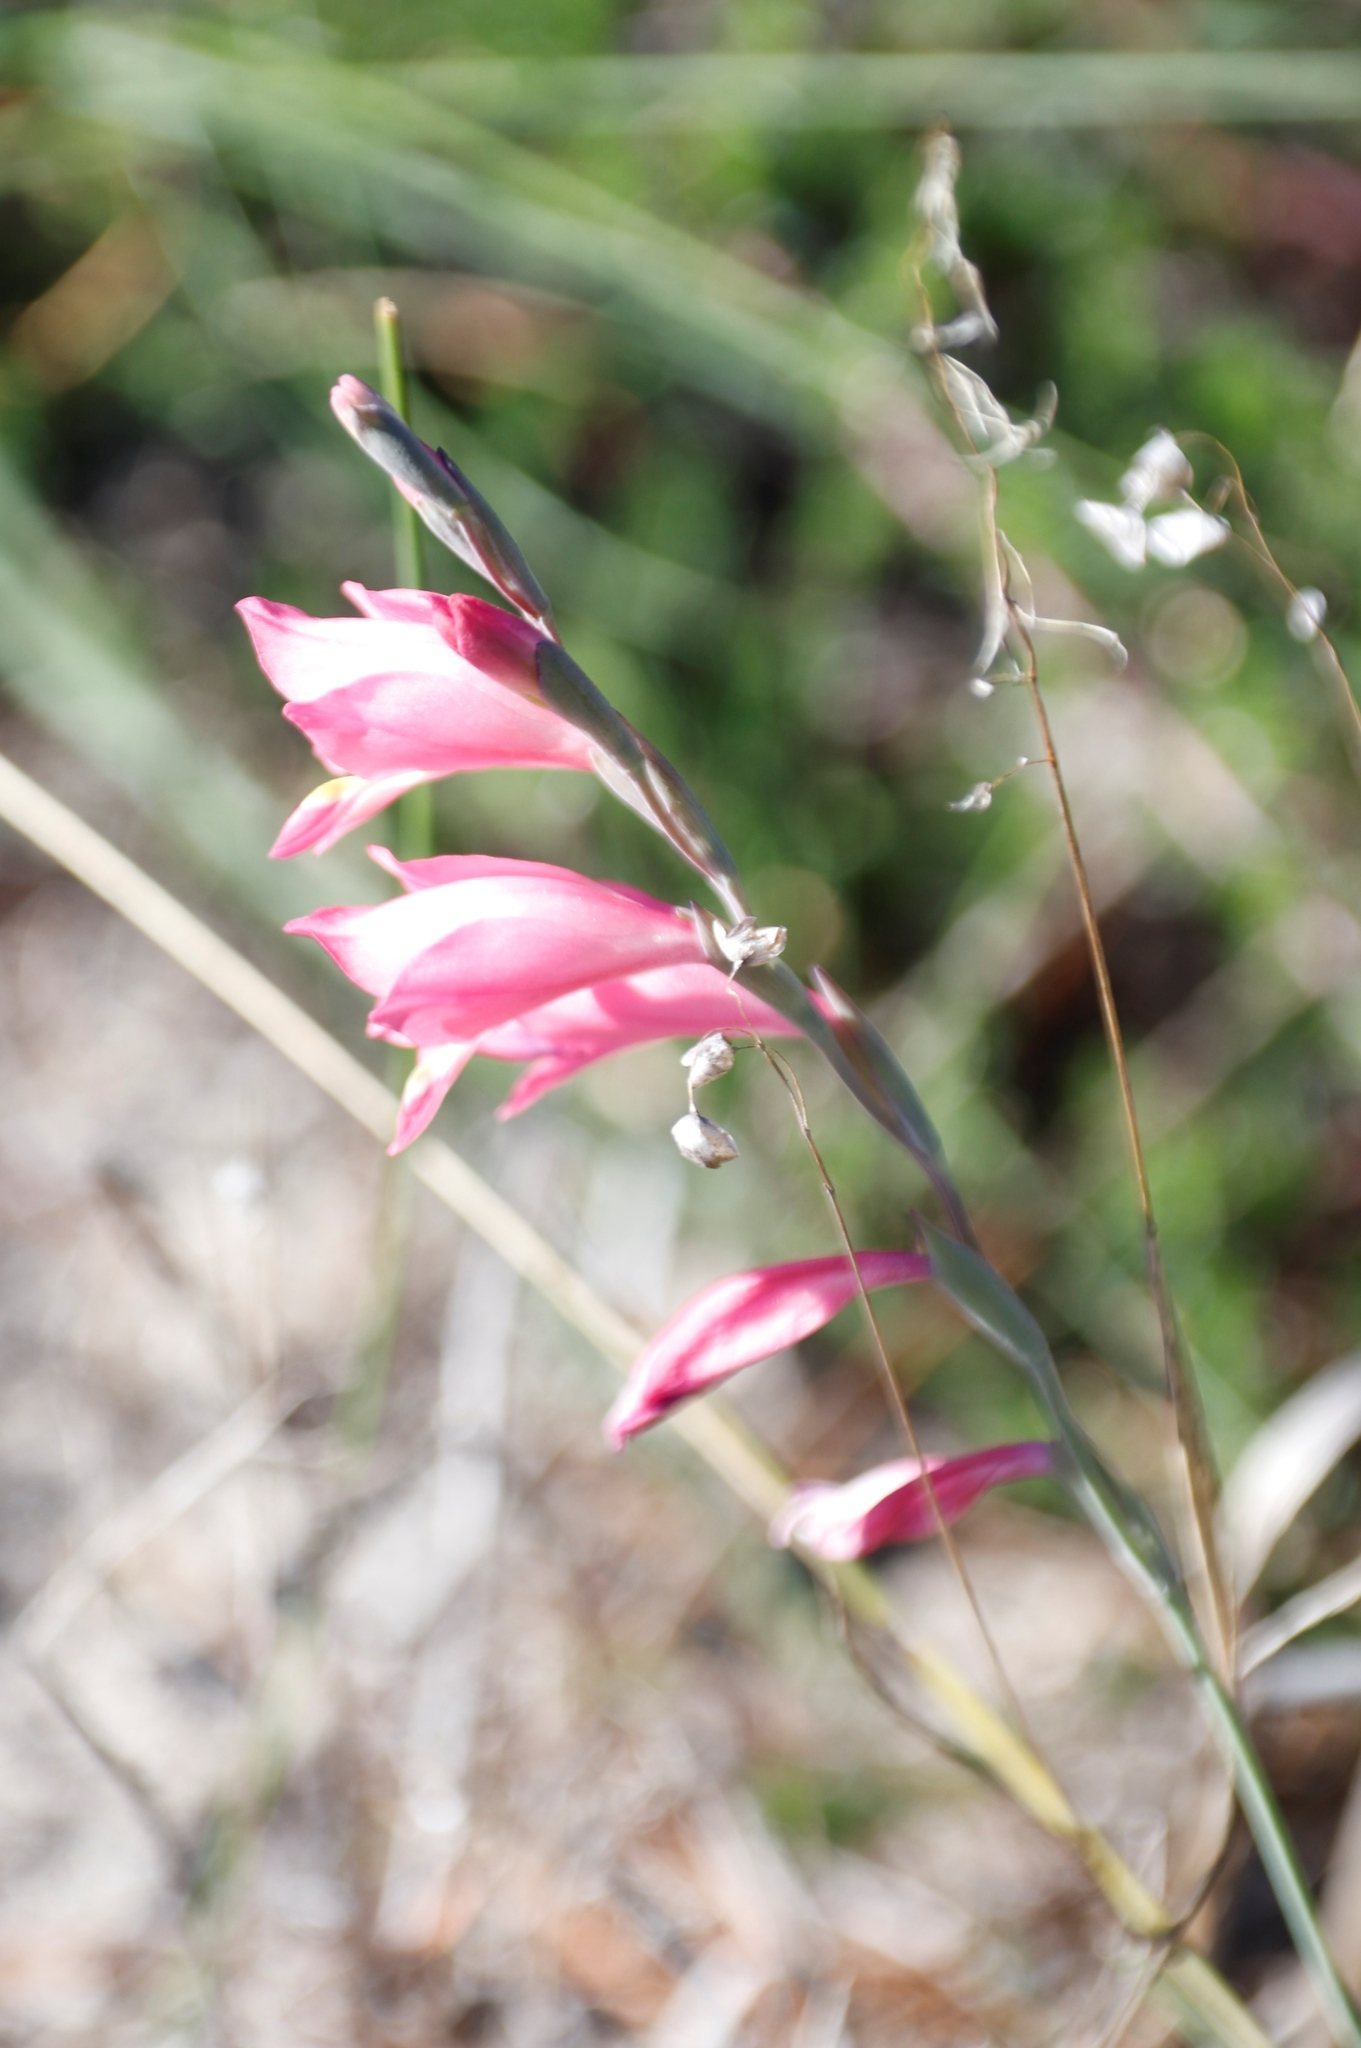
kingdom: Plantae
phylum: Tracheophyta
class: Liliopsida
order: Asparagales
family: Iridaceae
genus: Gladiolus
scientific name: Gladiolus brevifolius
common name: March pypie
